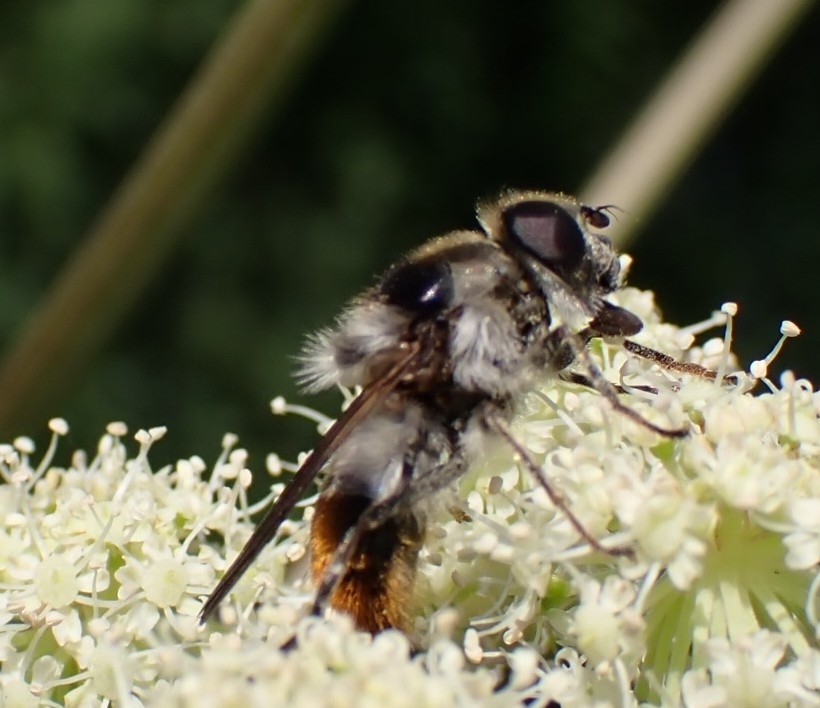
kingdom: Animalia
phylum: Arthropoda
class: Insecta
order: Diptera
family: Syrphidae
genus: Cheilosia
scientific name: Cheilosia illustrata
